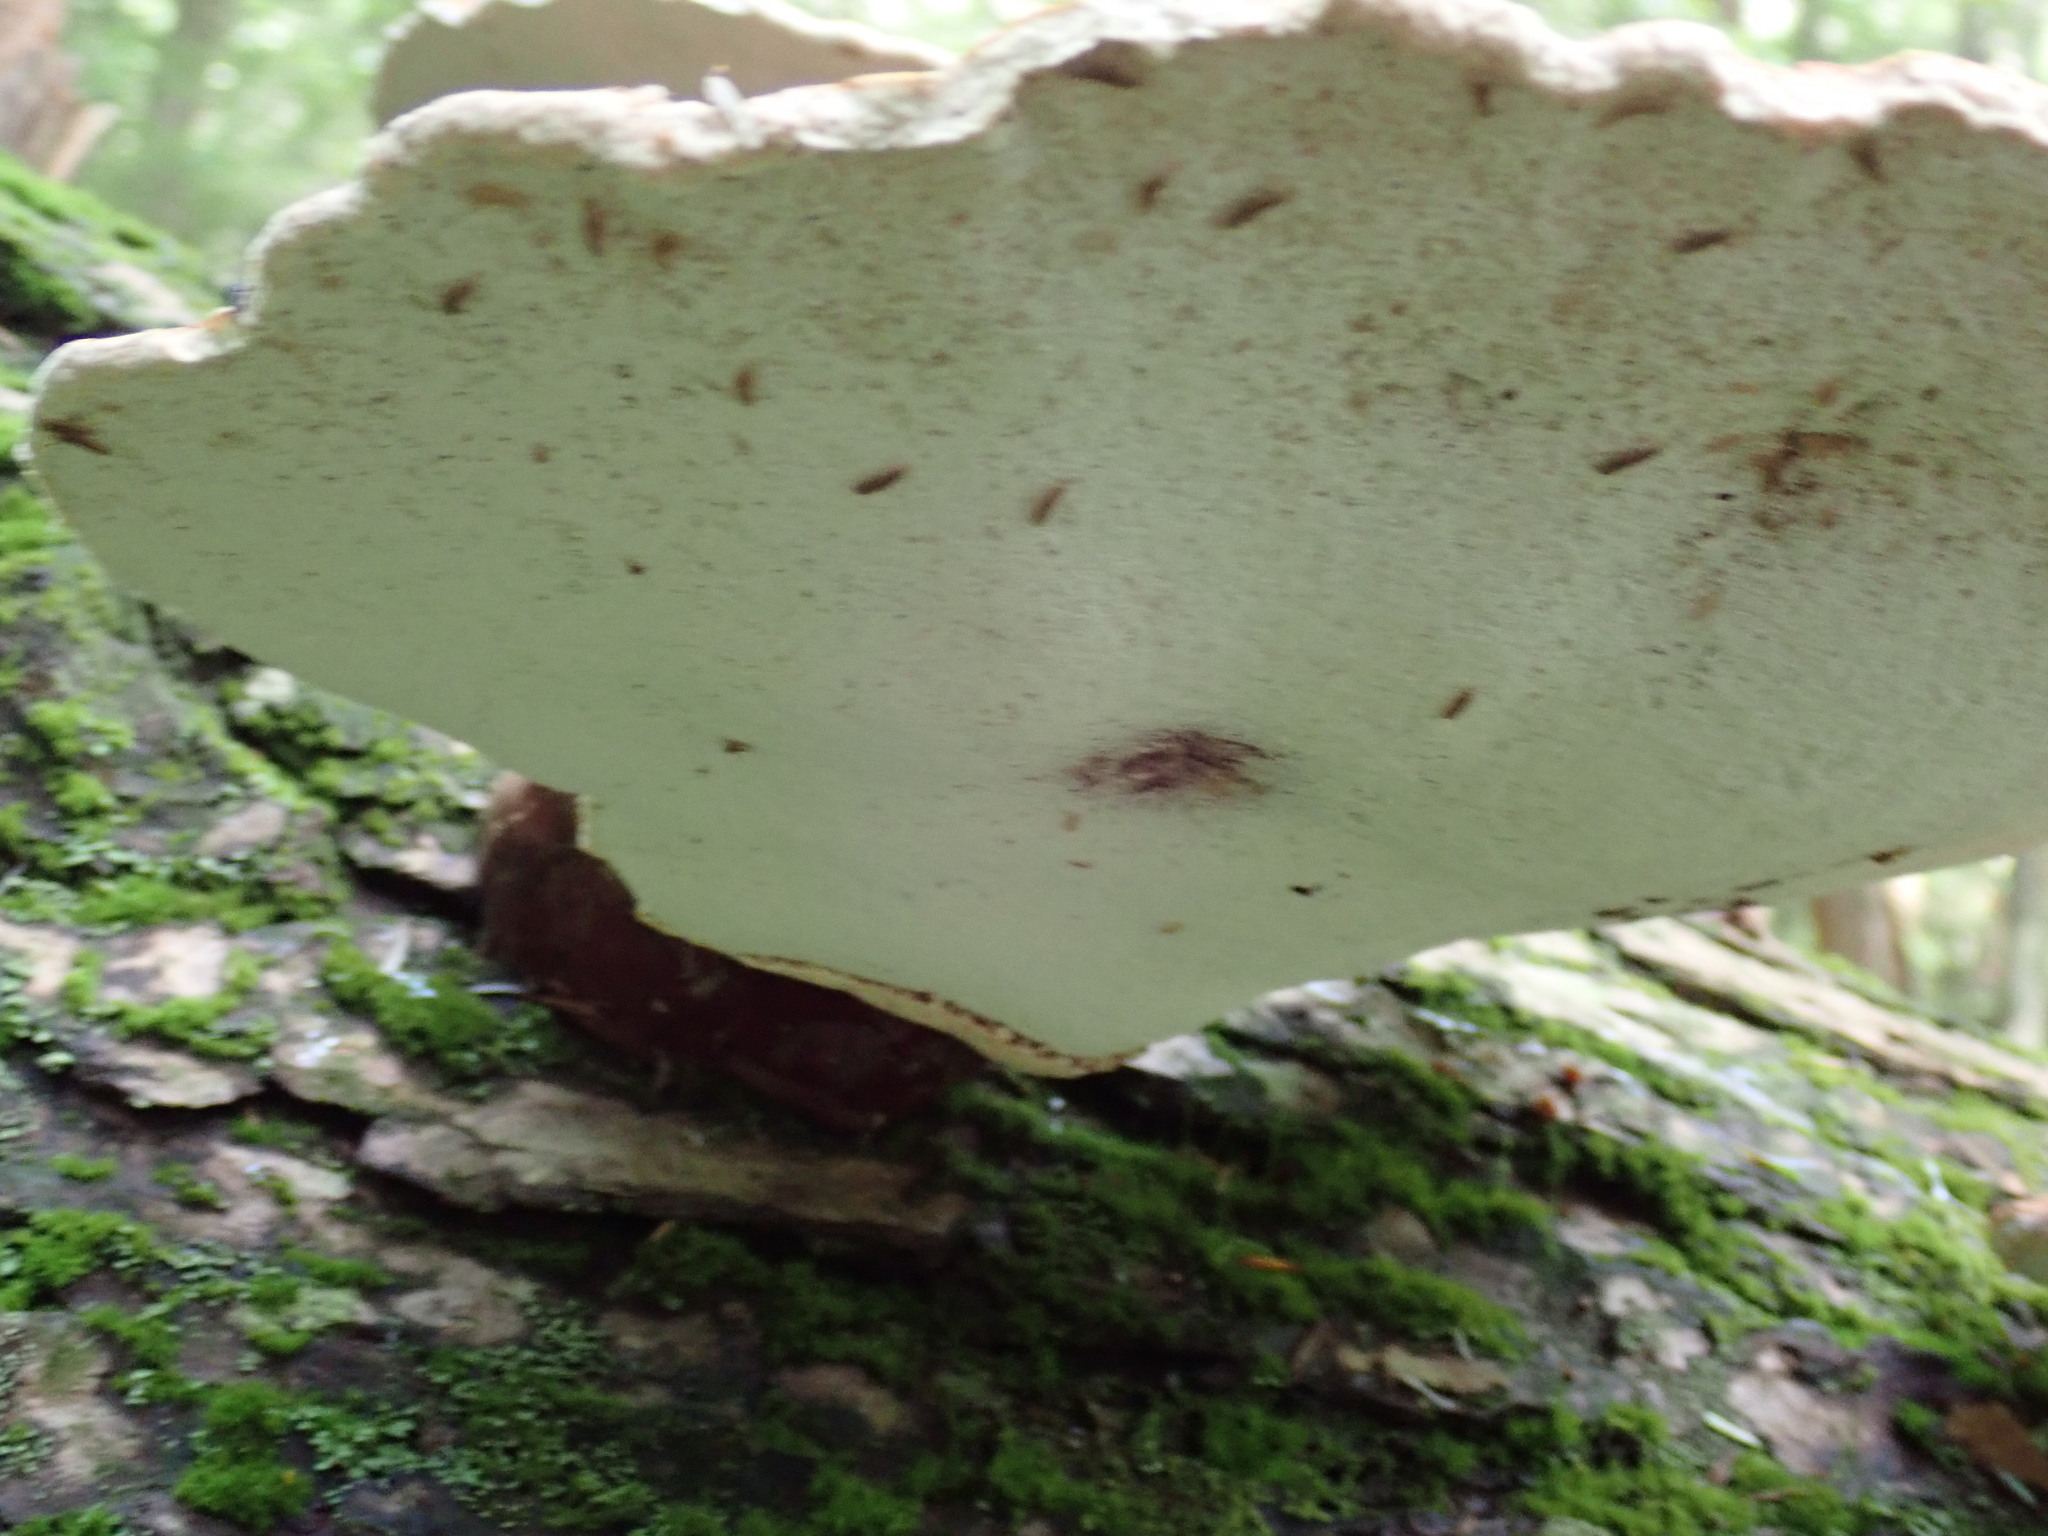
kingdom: Fungi
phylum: Basidiomycota
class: Agaricomycetes
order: Polyporales
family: Polyporaceae
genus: Ganoderma
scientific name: Ganoderma tsugae
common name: Hemlock varnish shelf
